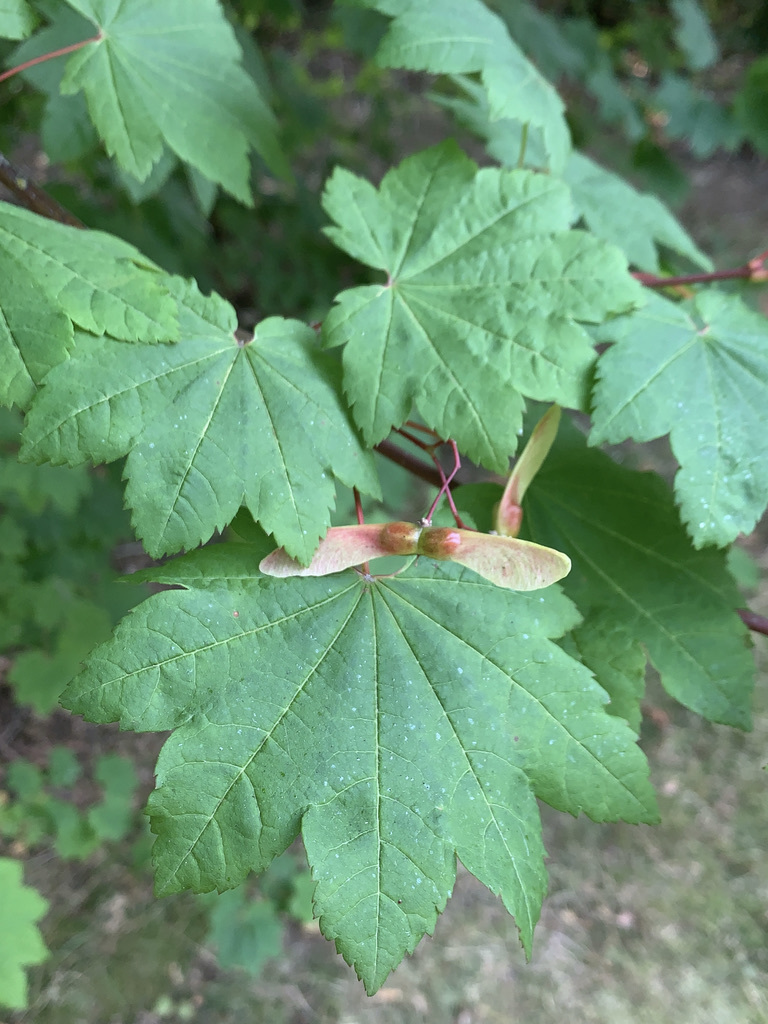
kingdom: Plantae
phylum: Tracheophyta
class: Magnoliopsida
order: Sapindales
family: Sapindaceae
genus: Acer
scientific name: Acer circinatum
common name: Vine maple
